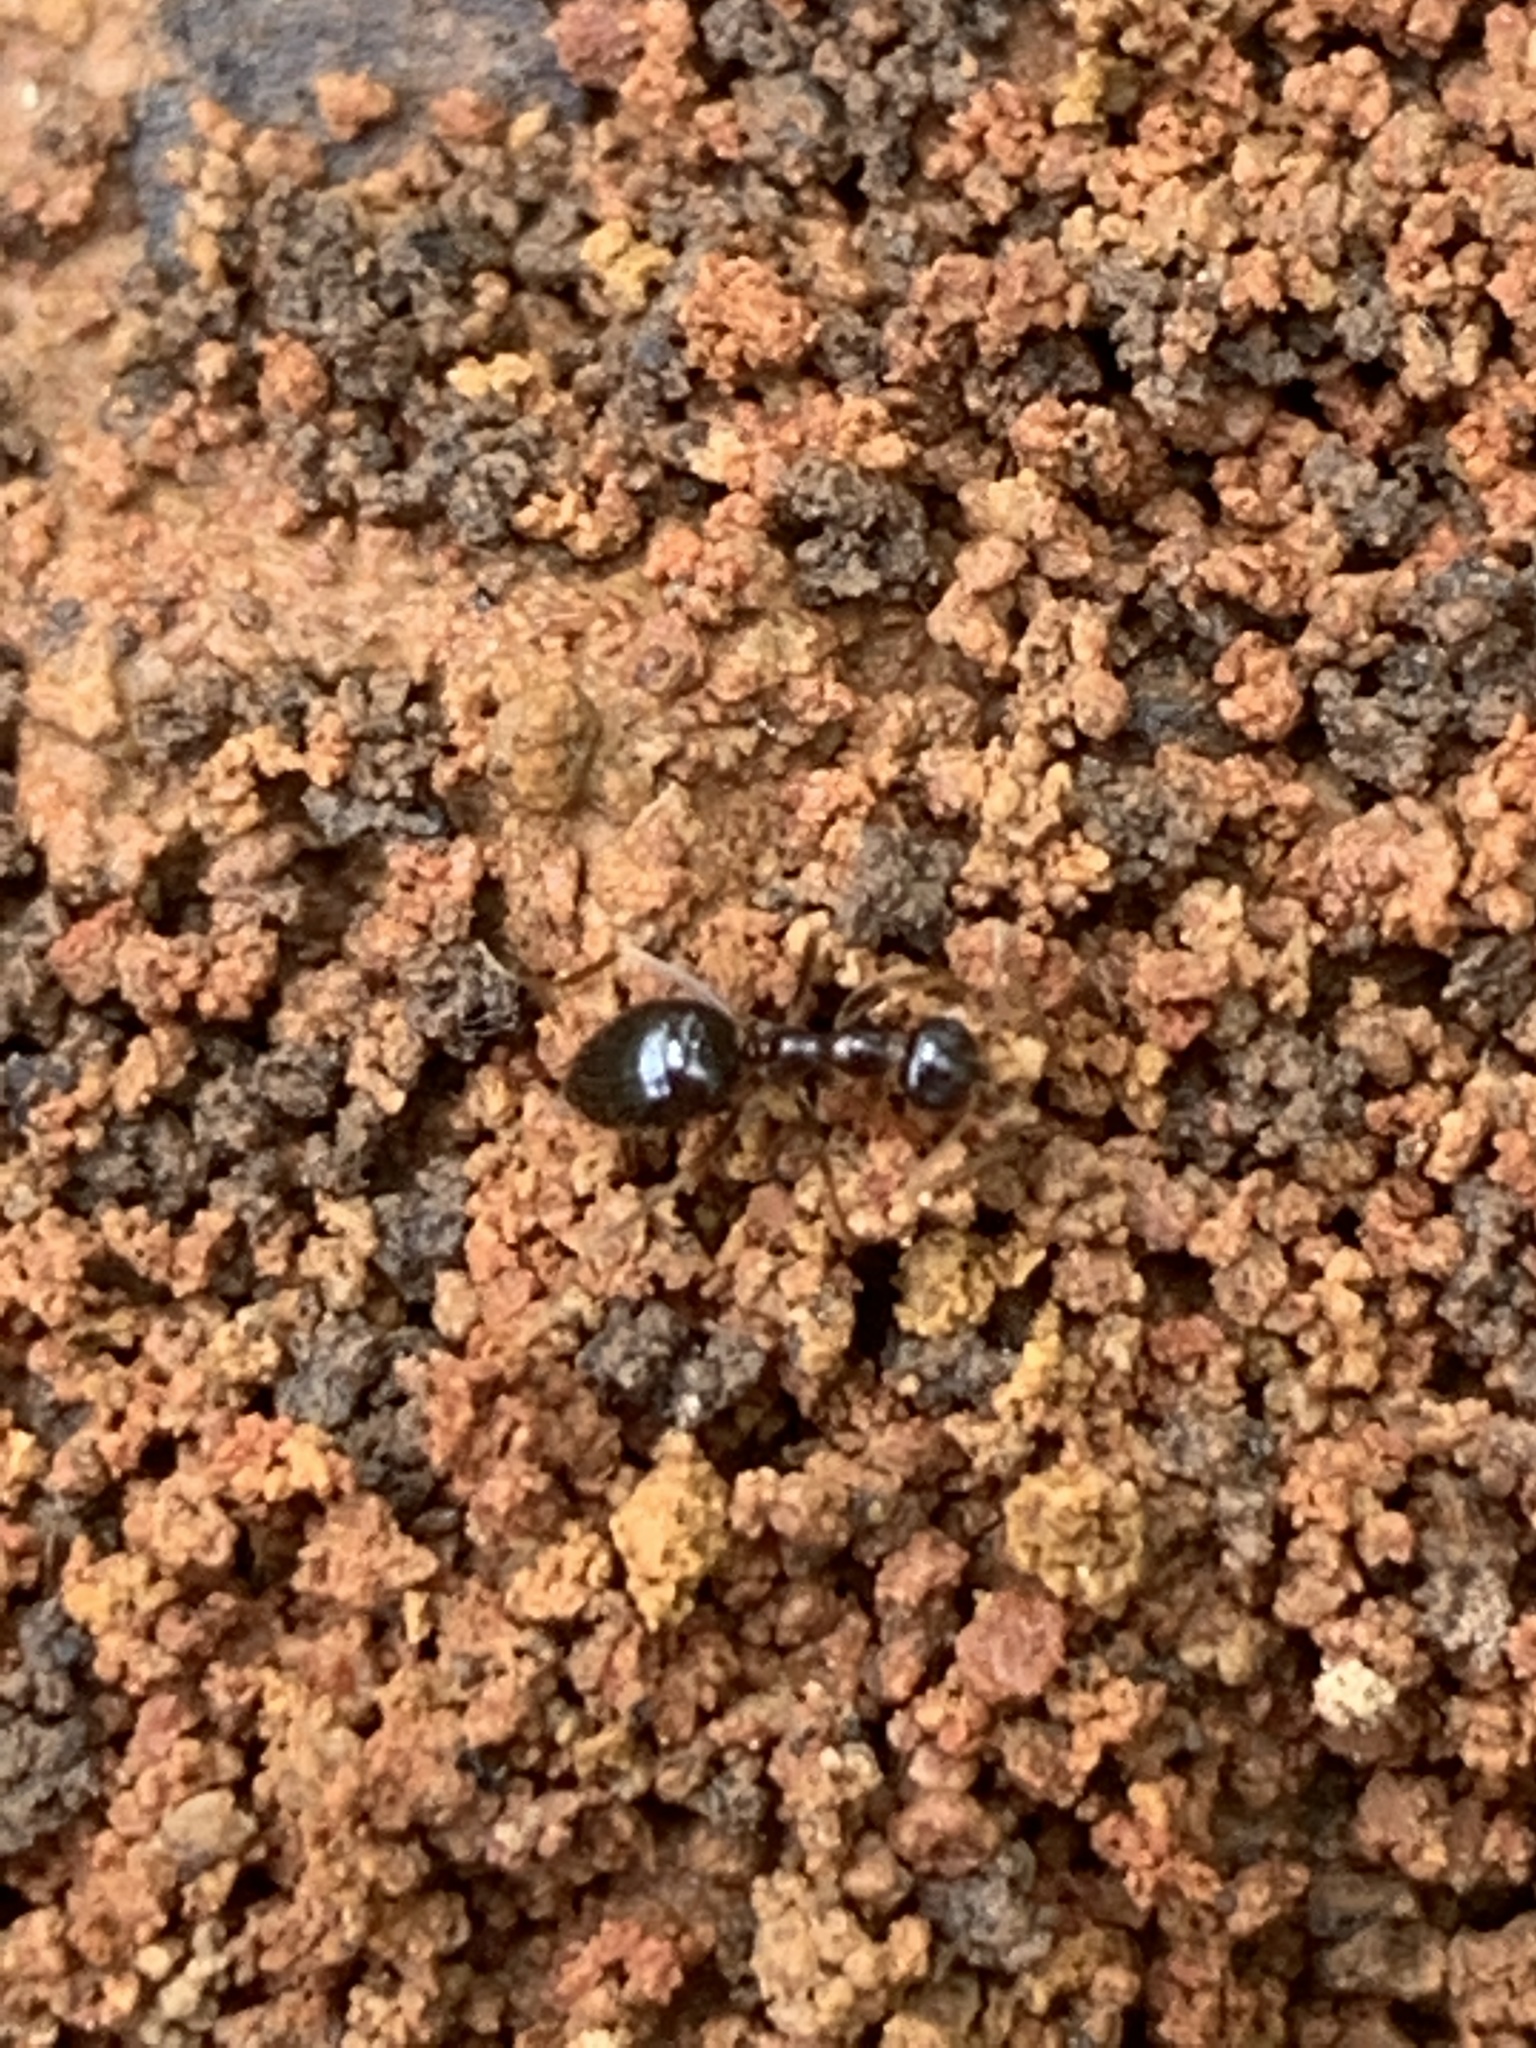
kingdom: Animalia
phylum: Arthropoda
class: Insecta
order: Hymenoptera
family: Formicidae
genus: Prenolepis
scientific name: Prenolepis imparis
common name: Small honey ant
